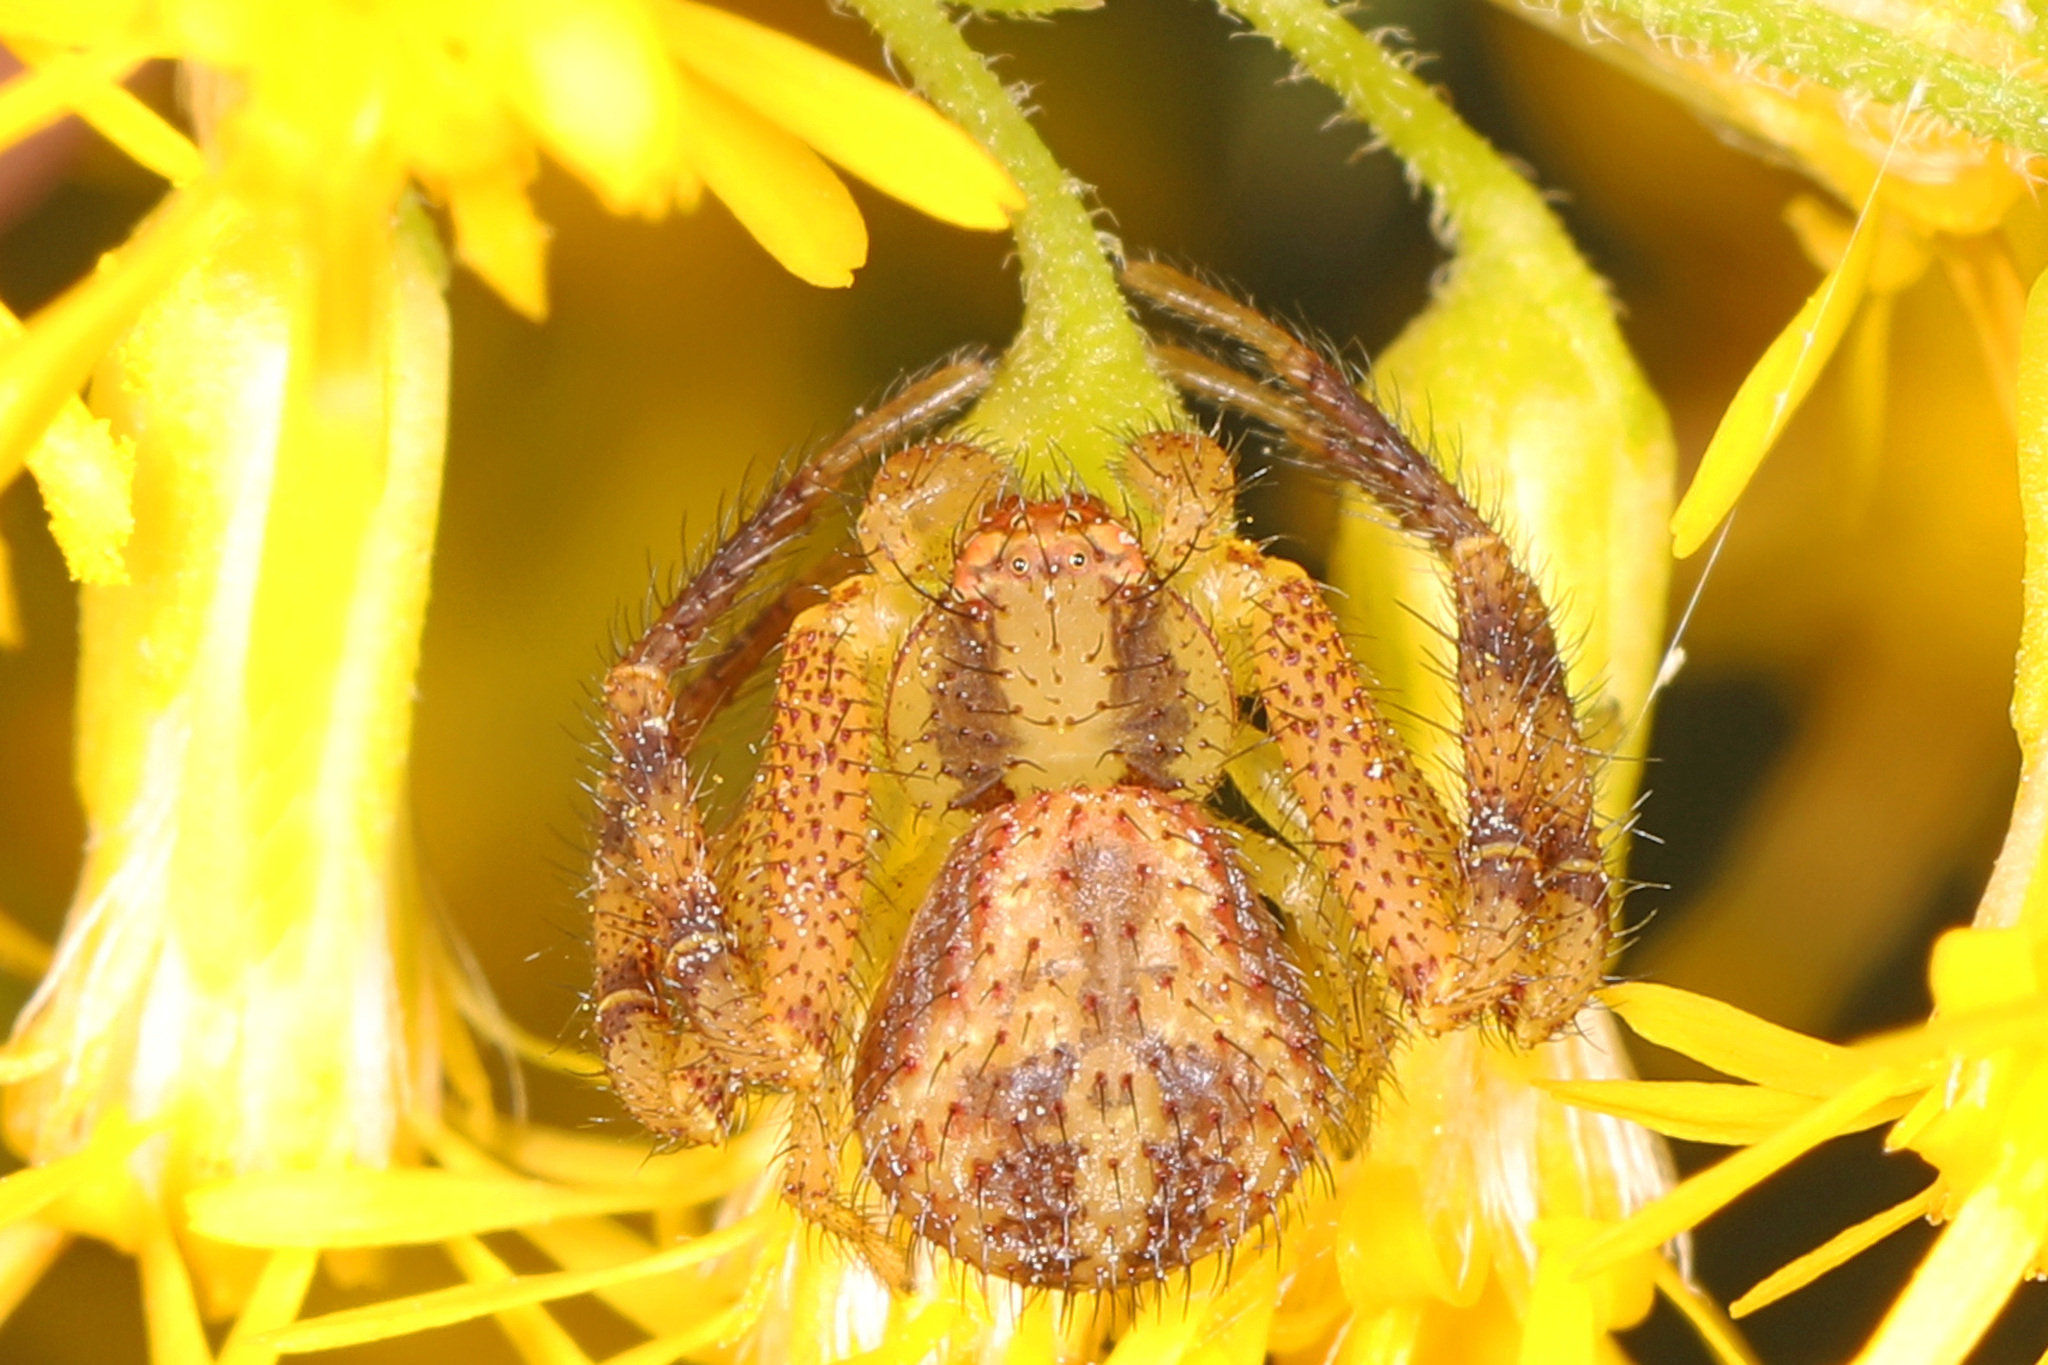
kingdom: Animalia
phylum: Arthropoda
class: Arachnida
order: Araneae
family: Thomisidae
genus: Mecaphesa
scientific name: Mecaphesa asperata
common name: Crab spiders
